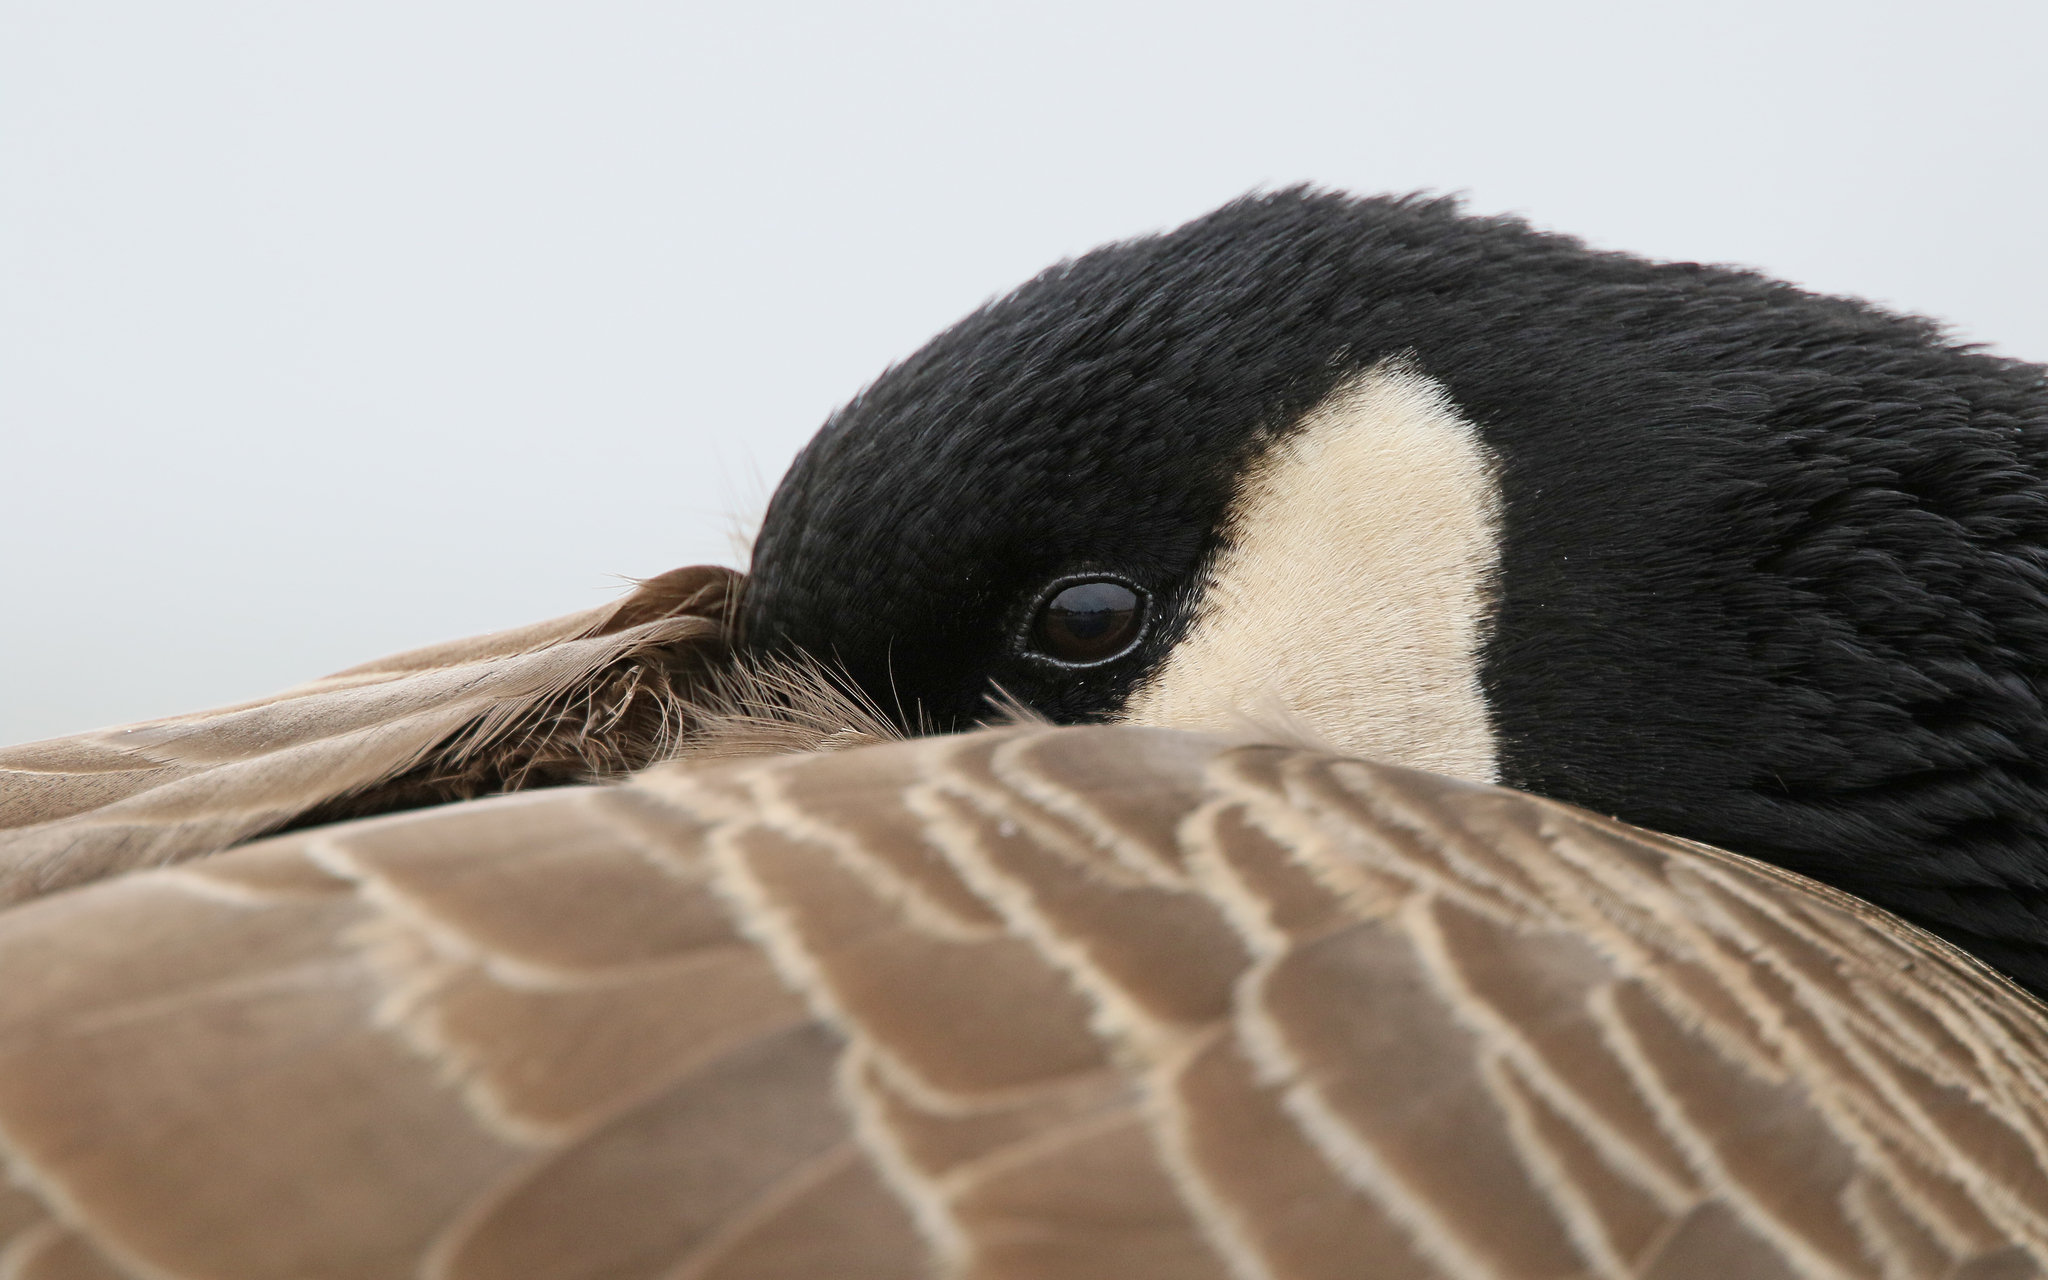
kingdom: Animalia
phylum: Chordata
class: Aves
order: Anseriformes
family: Anatidae
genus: Branta
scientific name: Branta canadensis
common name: Canada goose
